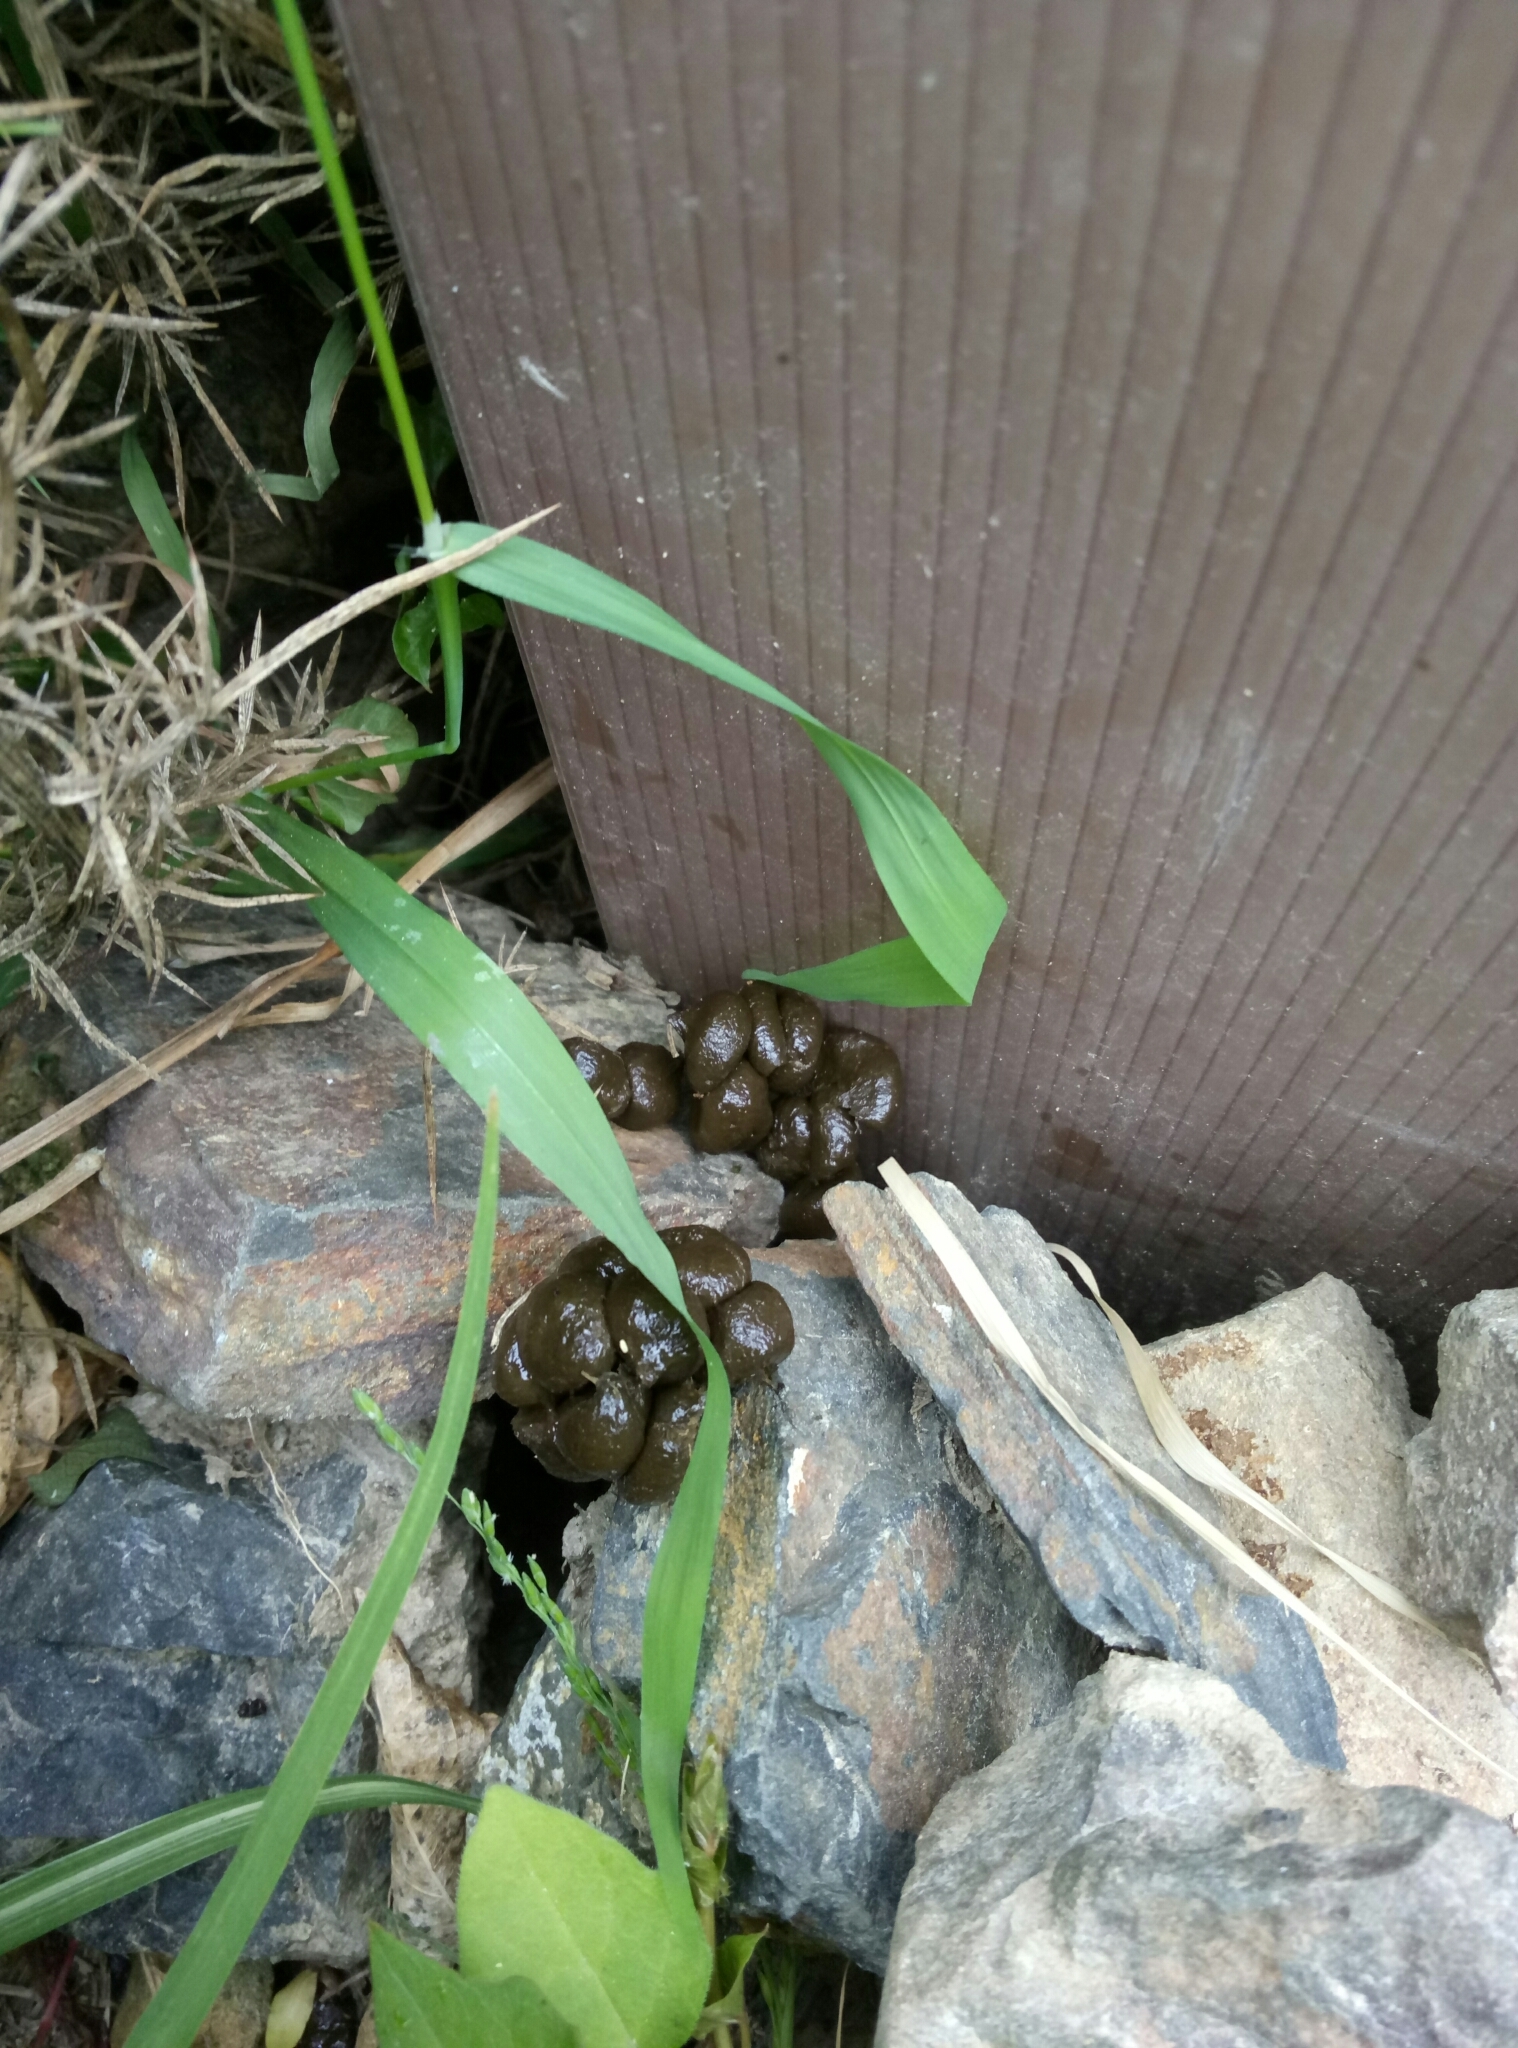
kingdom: Animalia
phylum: Chordata
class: Mammalia
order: Artiodactyla
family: Bovidae
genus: Ovis
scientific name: Ovis aries
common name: Domestic sheep
